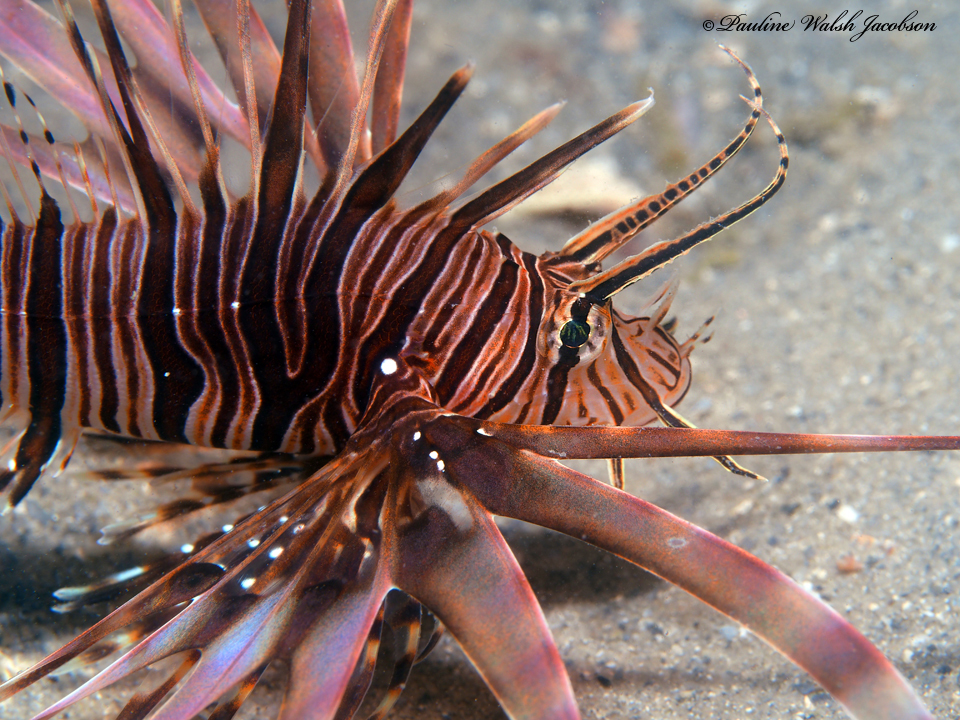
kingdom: Animalia
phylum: Chordata
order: Scorpaeniformes
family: Scorpaenidae
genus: Pterois
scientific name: Pterois volitans
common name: Lionfish
